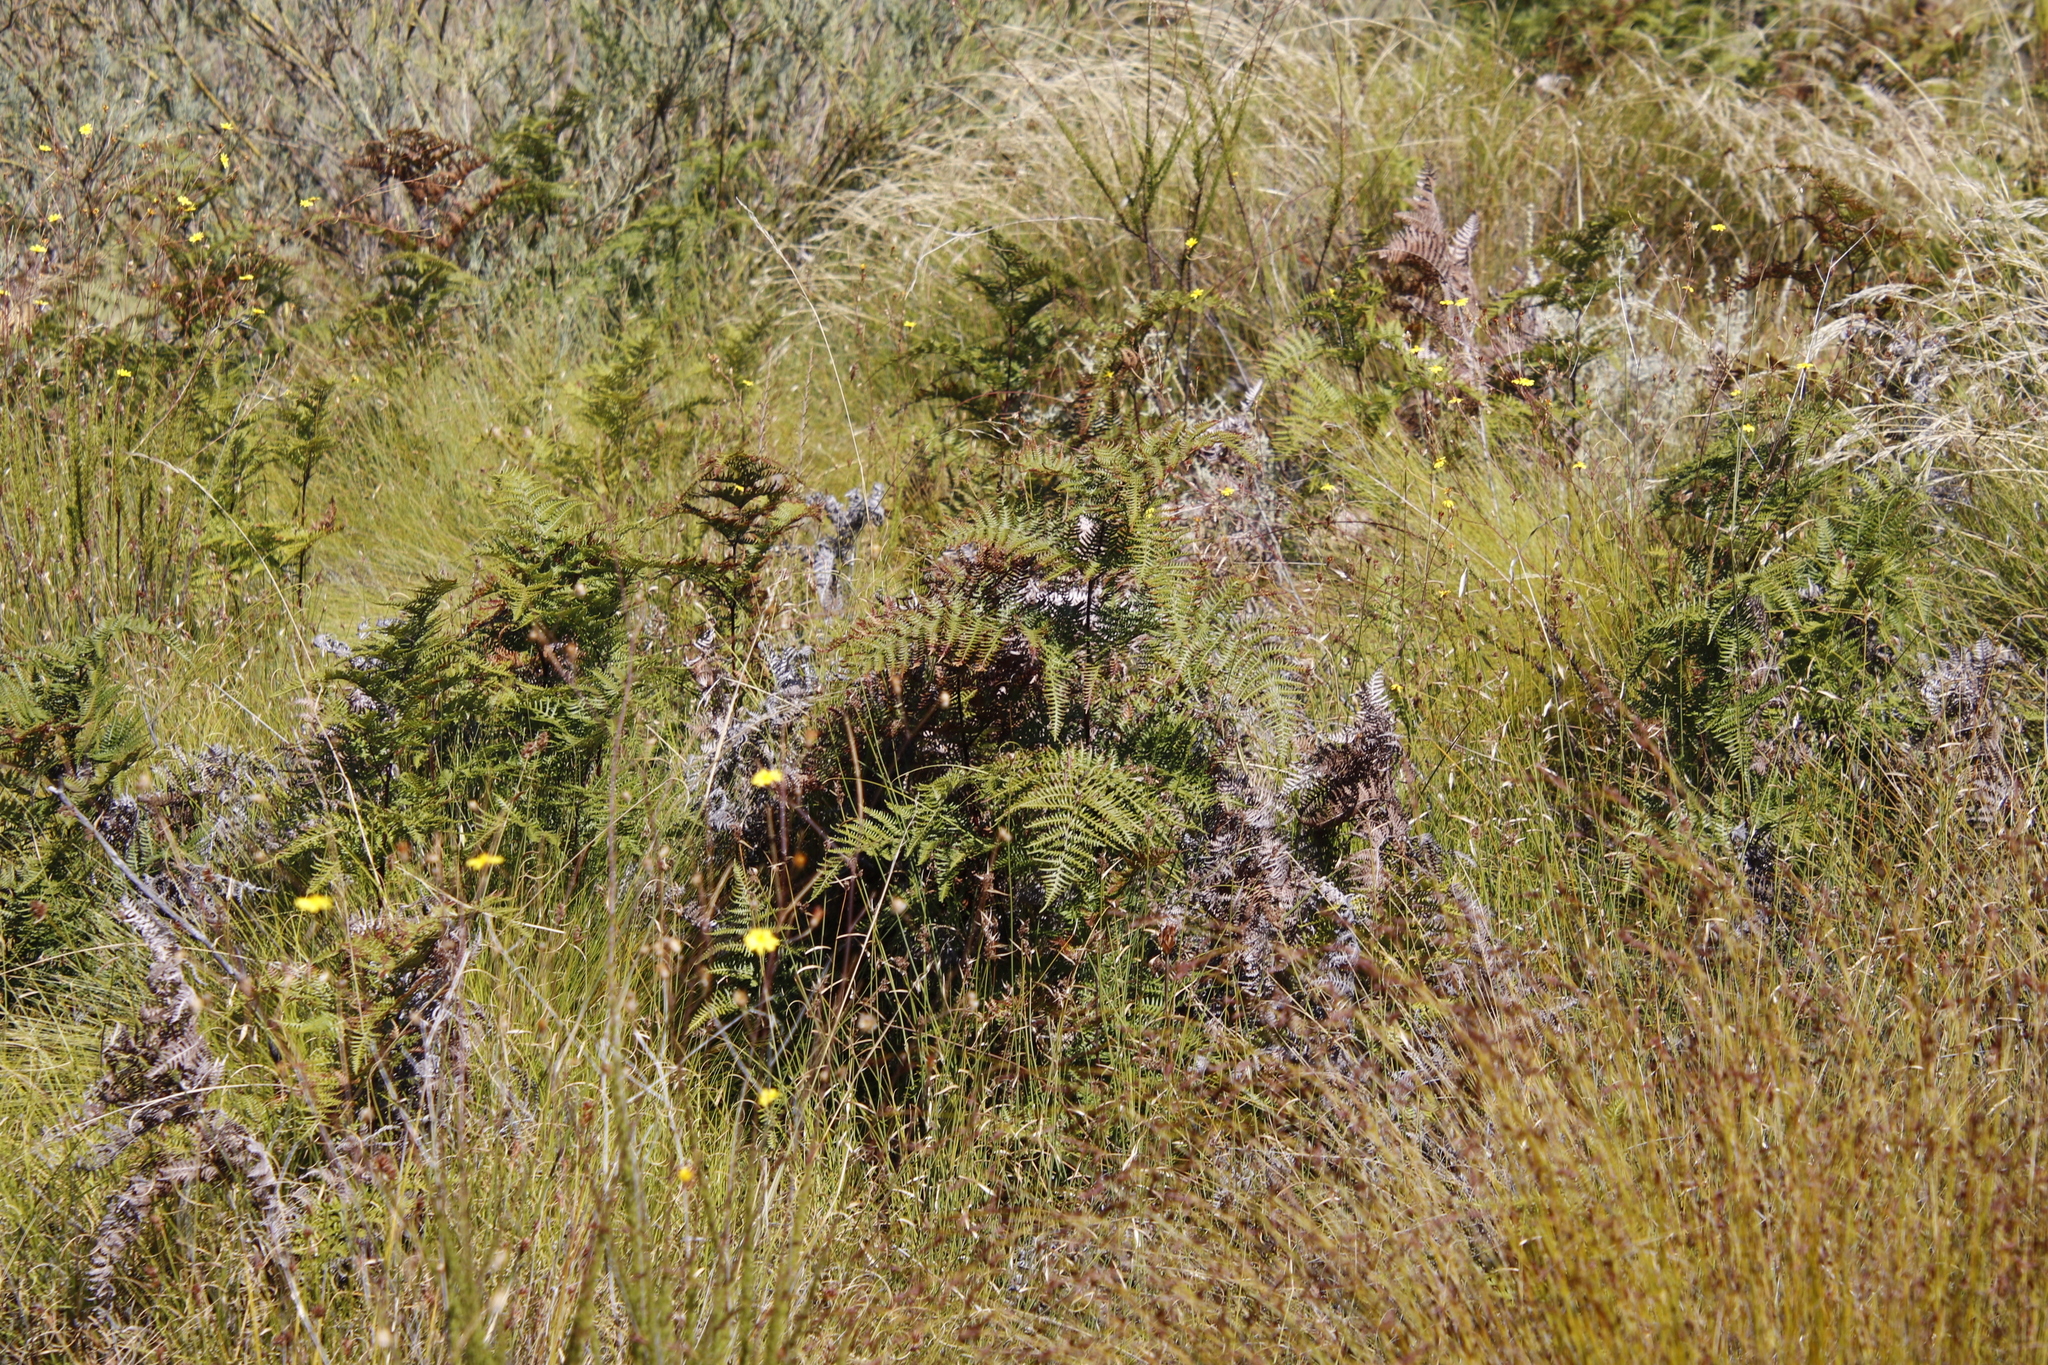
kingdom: Plantae
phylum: Tracheophyta
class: Polypodiopsida
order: Polypodiales
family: Dennstaedtiaceae
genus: Pteridium
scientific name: Pteridium aquilinum
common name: Bracken
